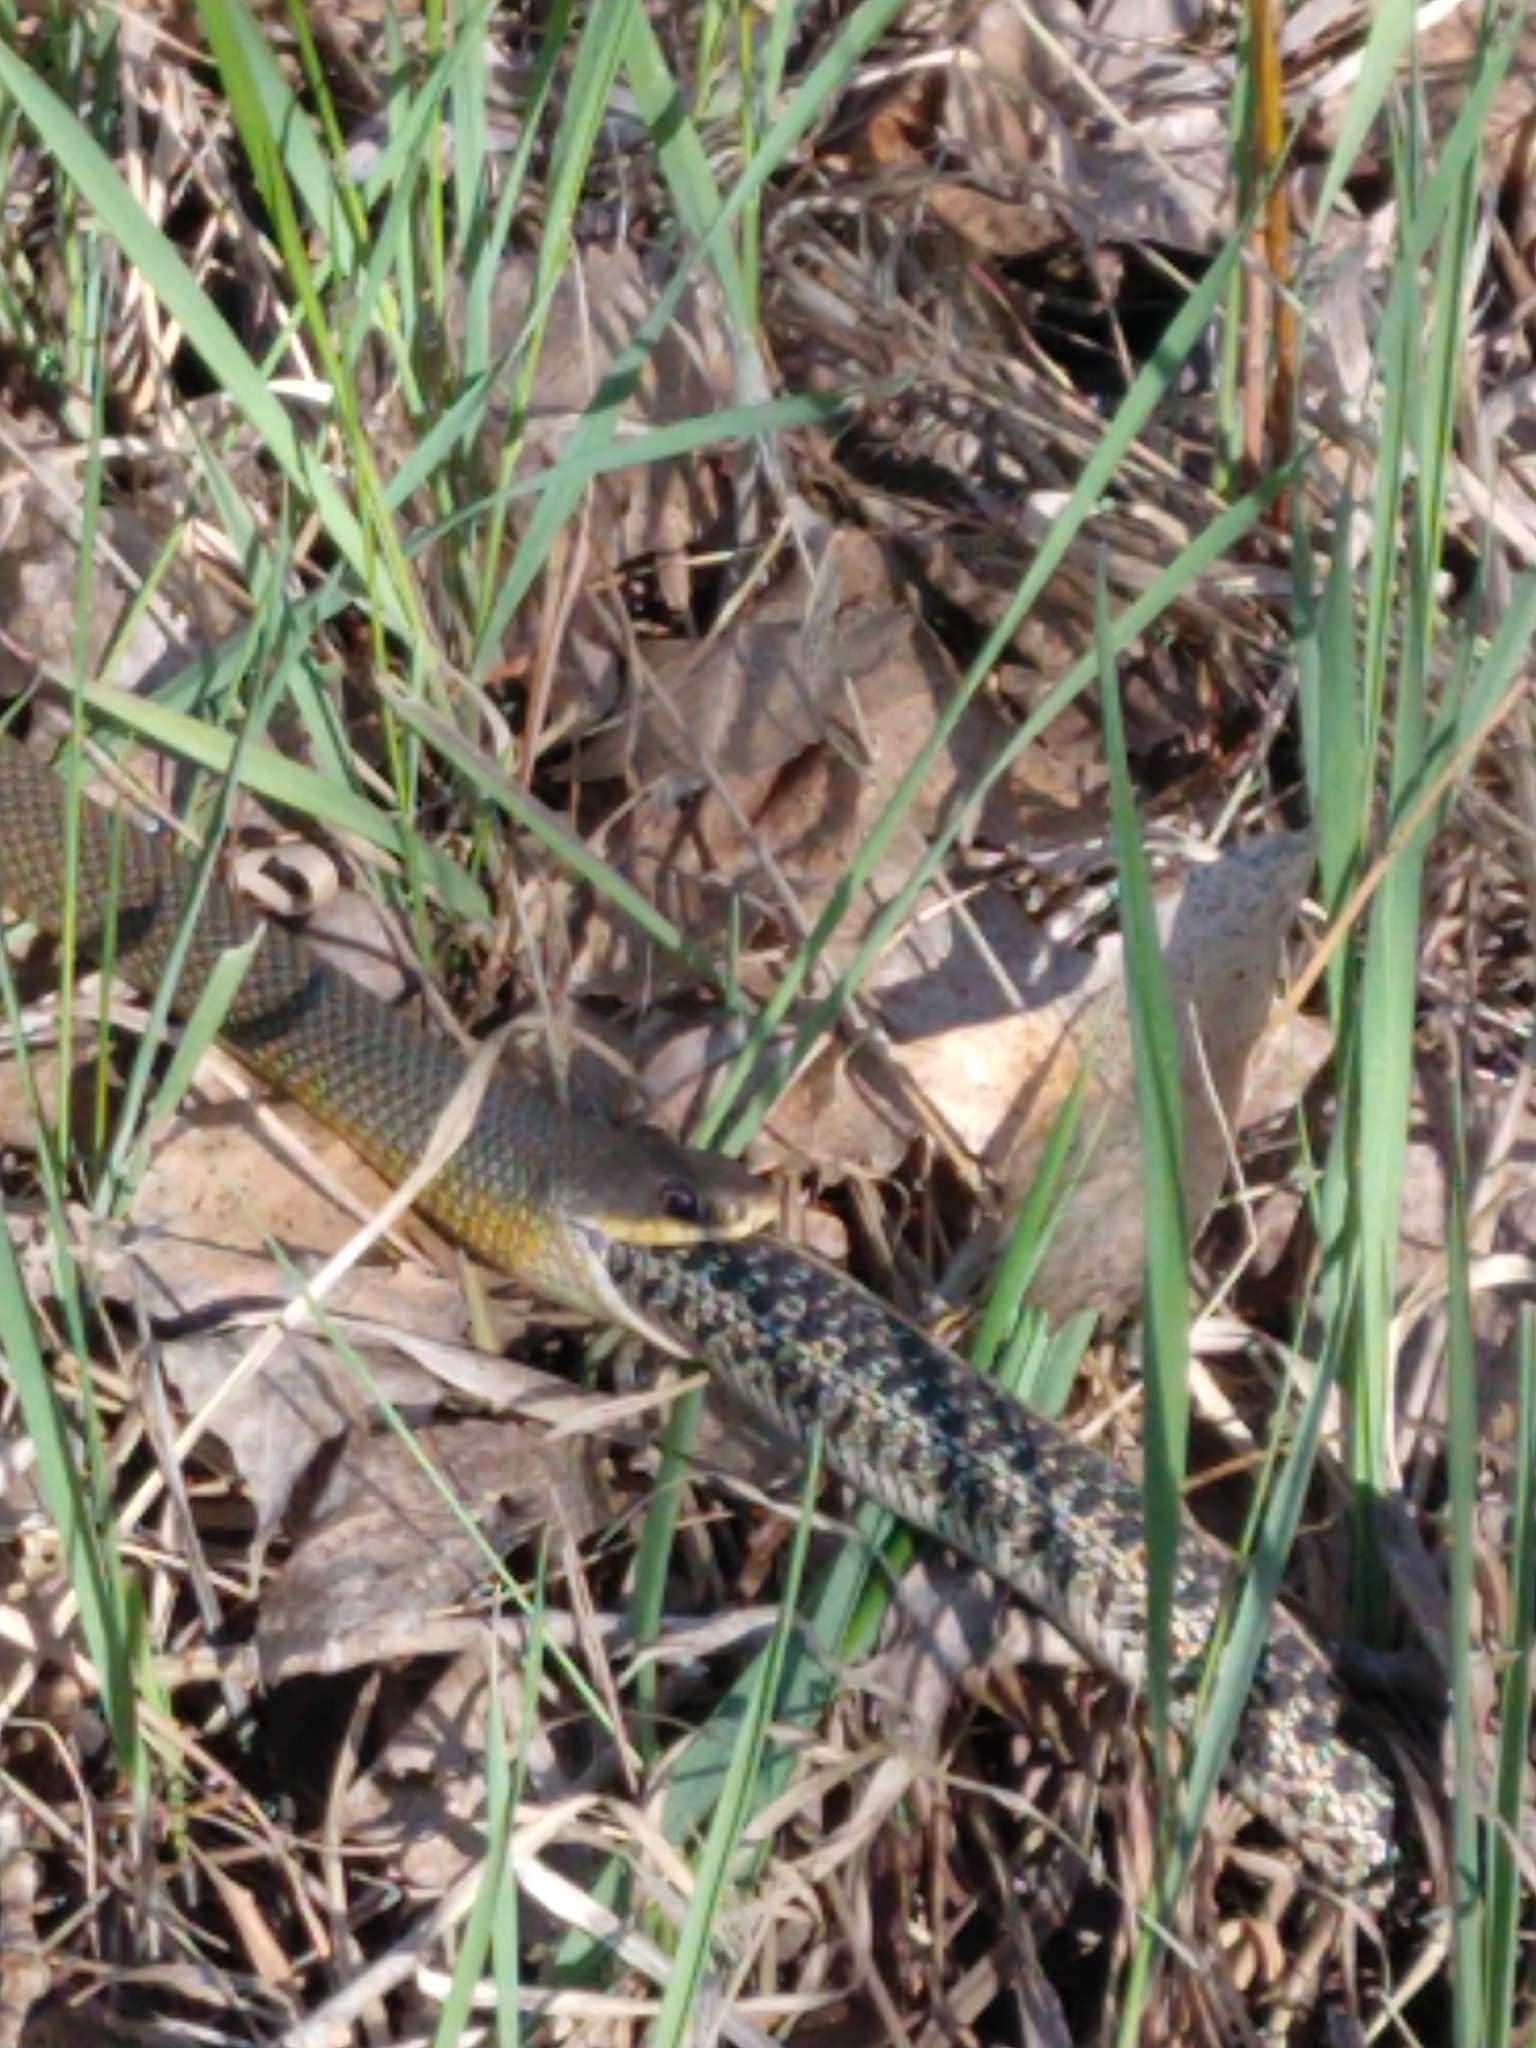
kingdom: Animalia
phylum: Chordata
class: Squamata
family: Colubridae
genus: Coluber
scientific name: Coluber constrictor
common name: Eastern racer
